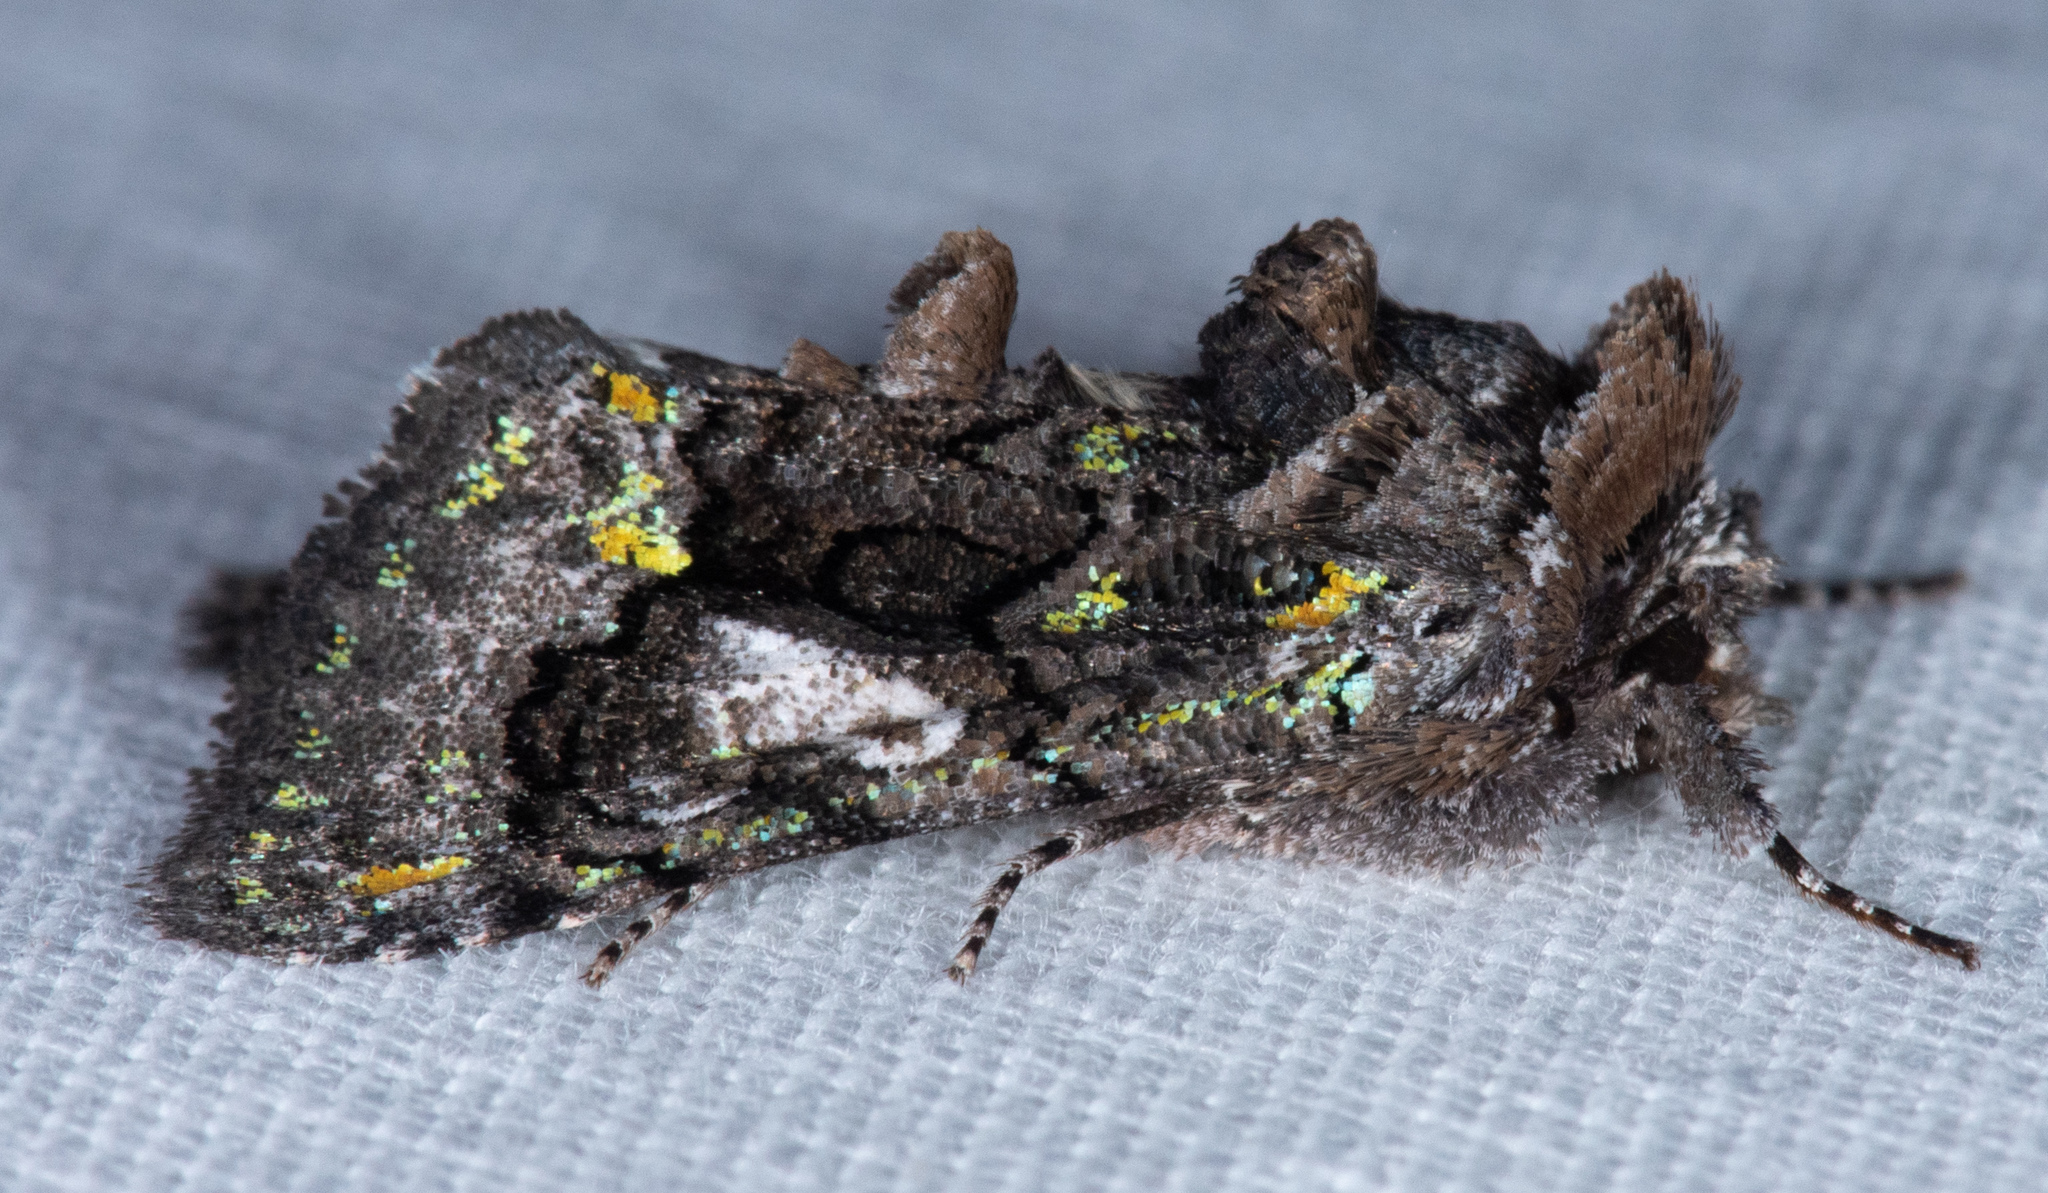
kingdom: Animalia
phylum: Arthropoda
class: Insecta
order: Lepidoptera
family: Noctuidae
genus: Behrensia
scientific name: Behrensia conchiformis
